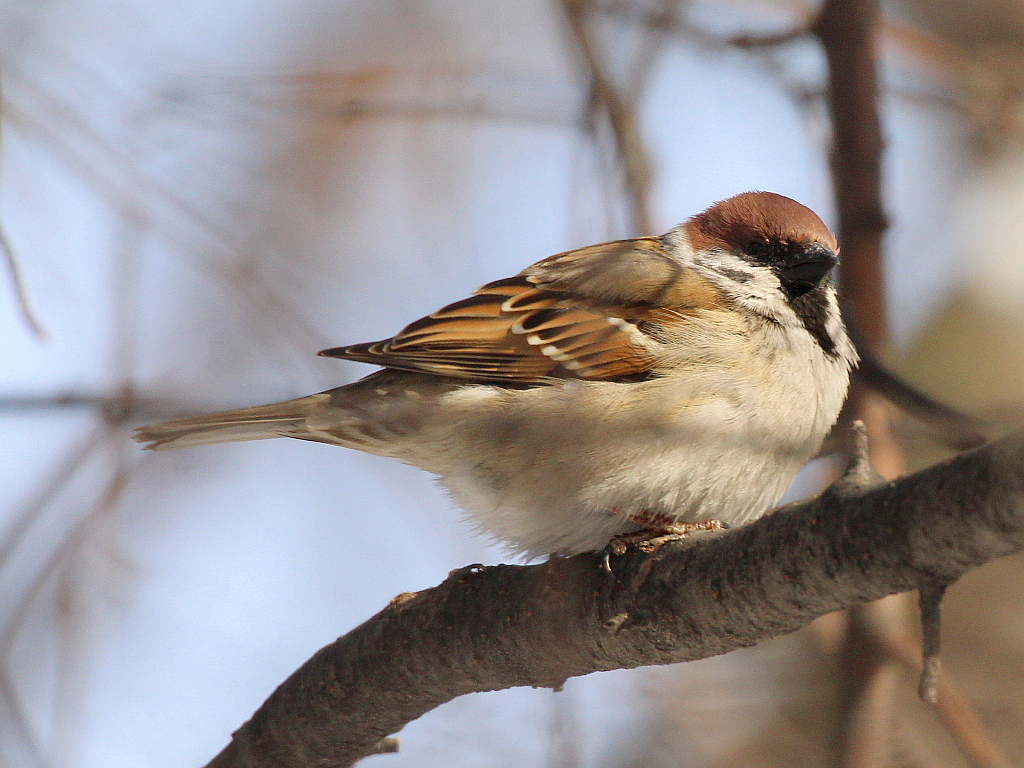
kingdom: Animalia
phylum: Chordata
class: Aves
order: Passeriformes
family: Passeridae
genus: Passer
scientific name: Passer montanus
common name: Eurasian tree sparrow
